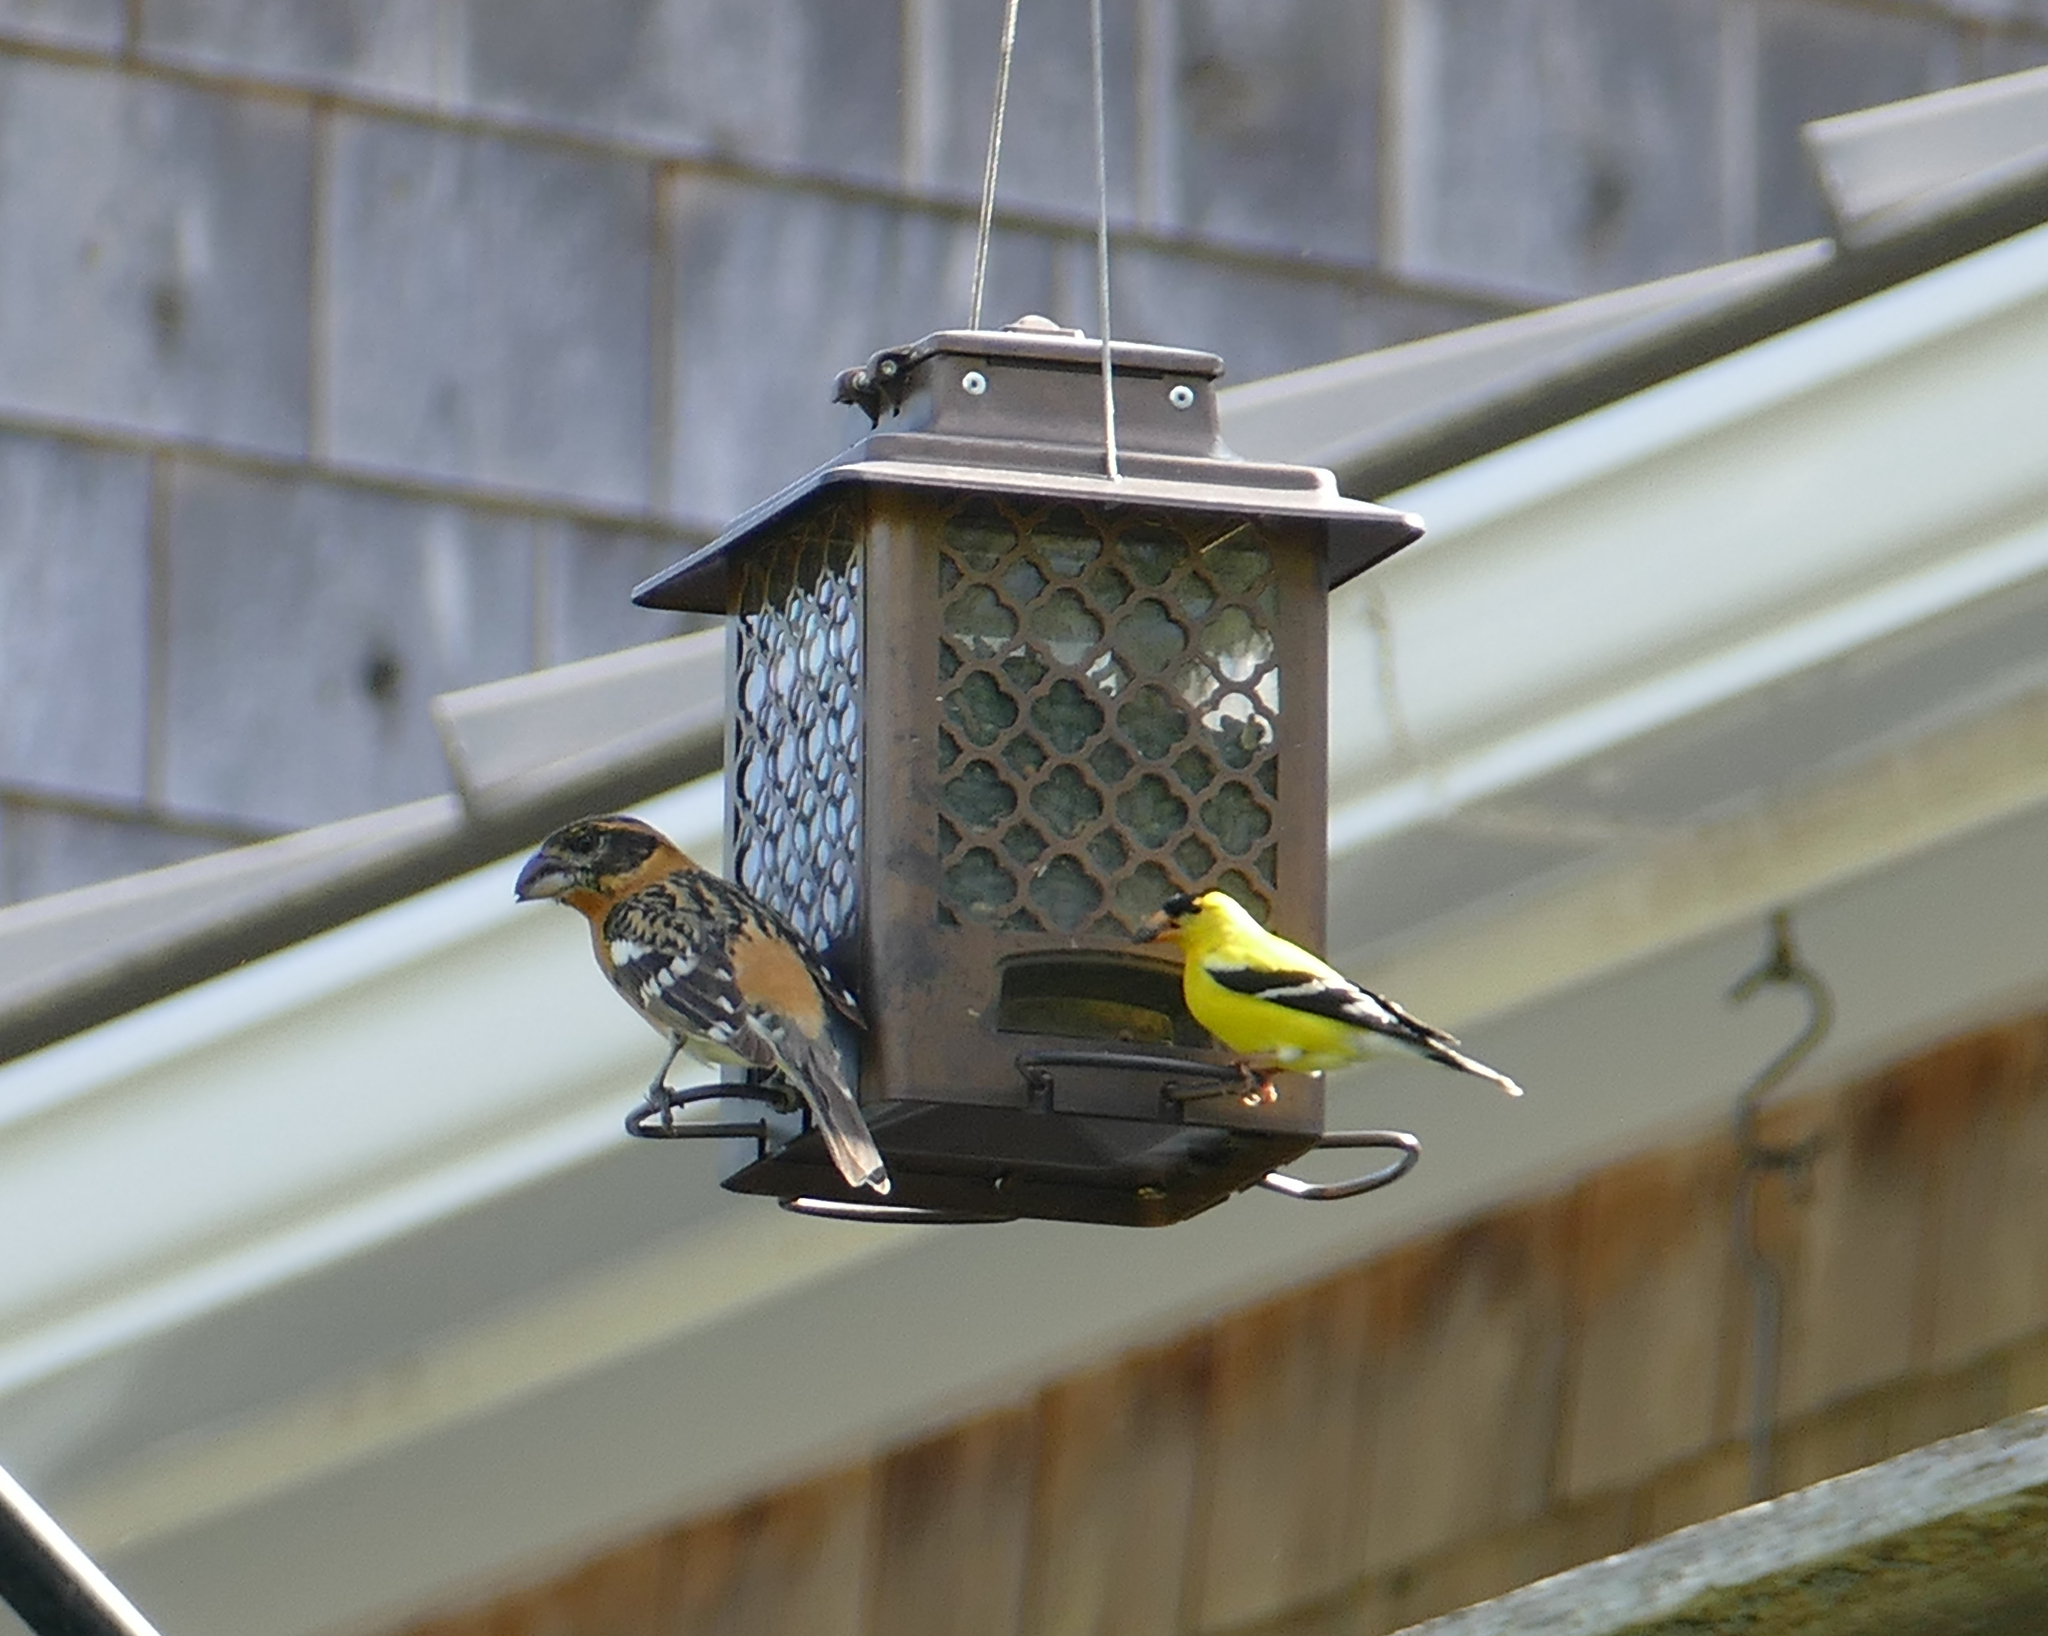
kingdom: Animalia
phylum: Chordata
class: Aves
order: Passeriformes
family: Fringillidae
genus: Spinus
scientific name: Spinus tristis
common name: American goldfinch
